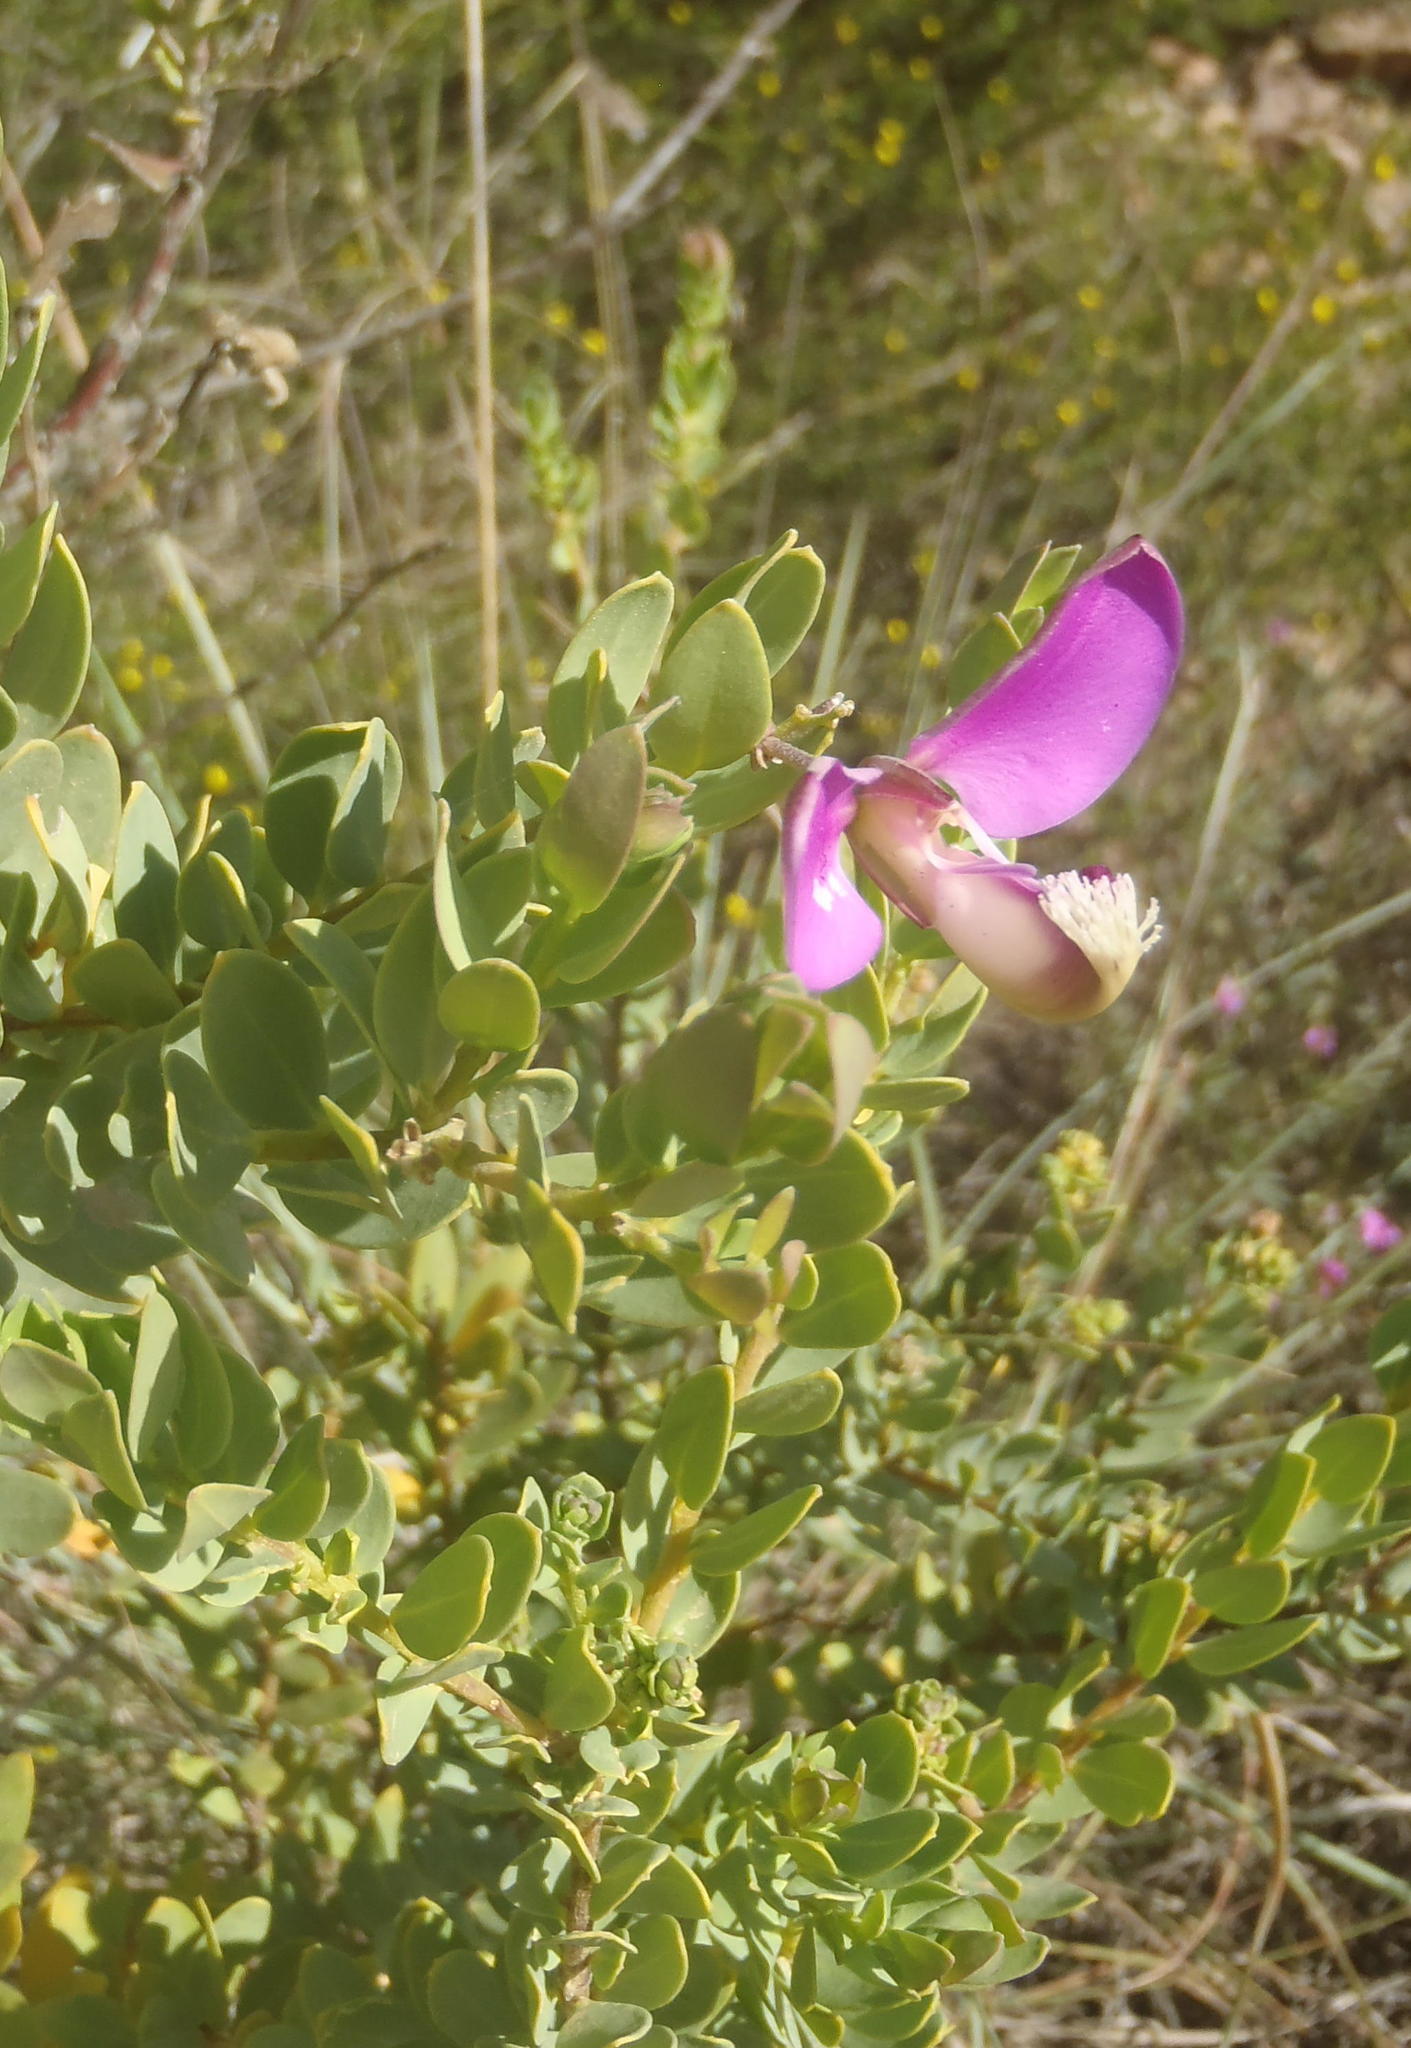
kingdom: Plantae
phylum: Tracheophyta
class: Magnoliopsida
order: Fabales
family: Polygalaceae
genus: Polygala
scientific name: Polygala myrtifolia
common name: Myrtle-leaf milkwort
